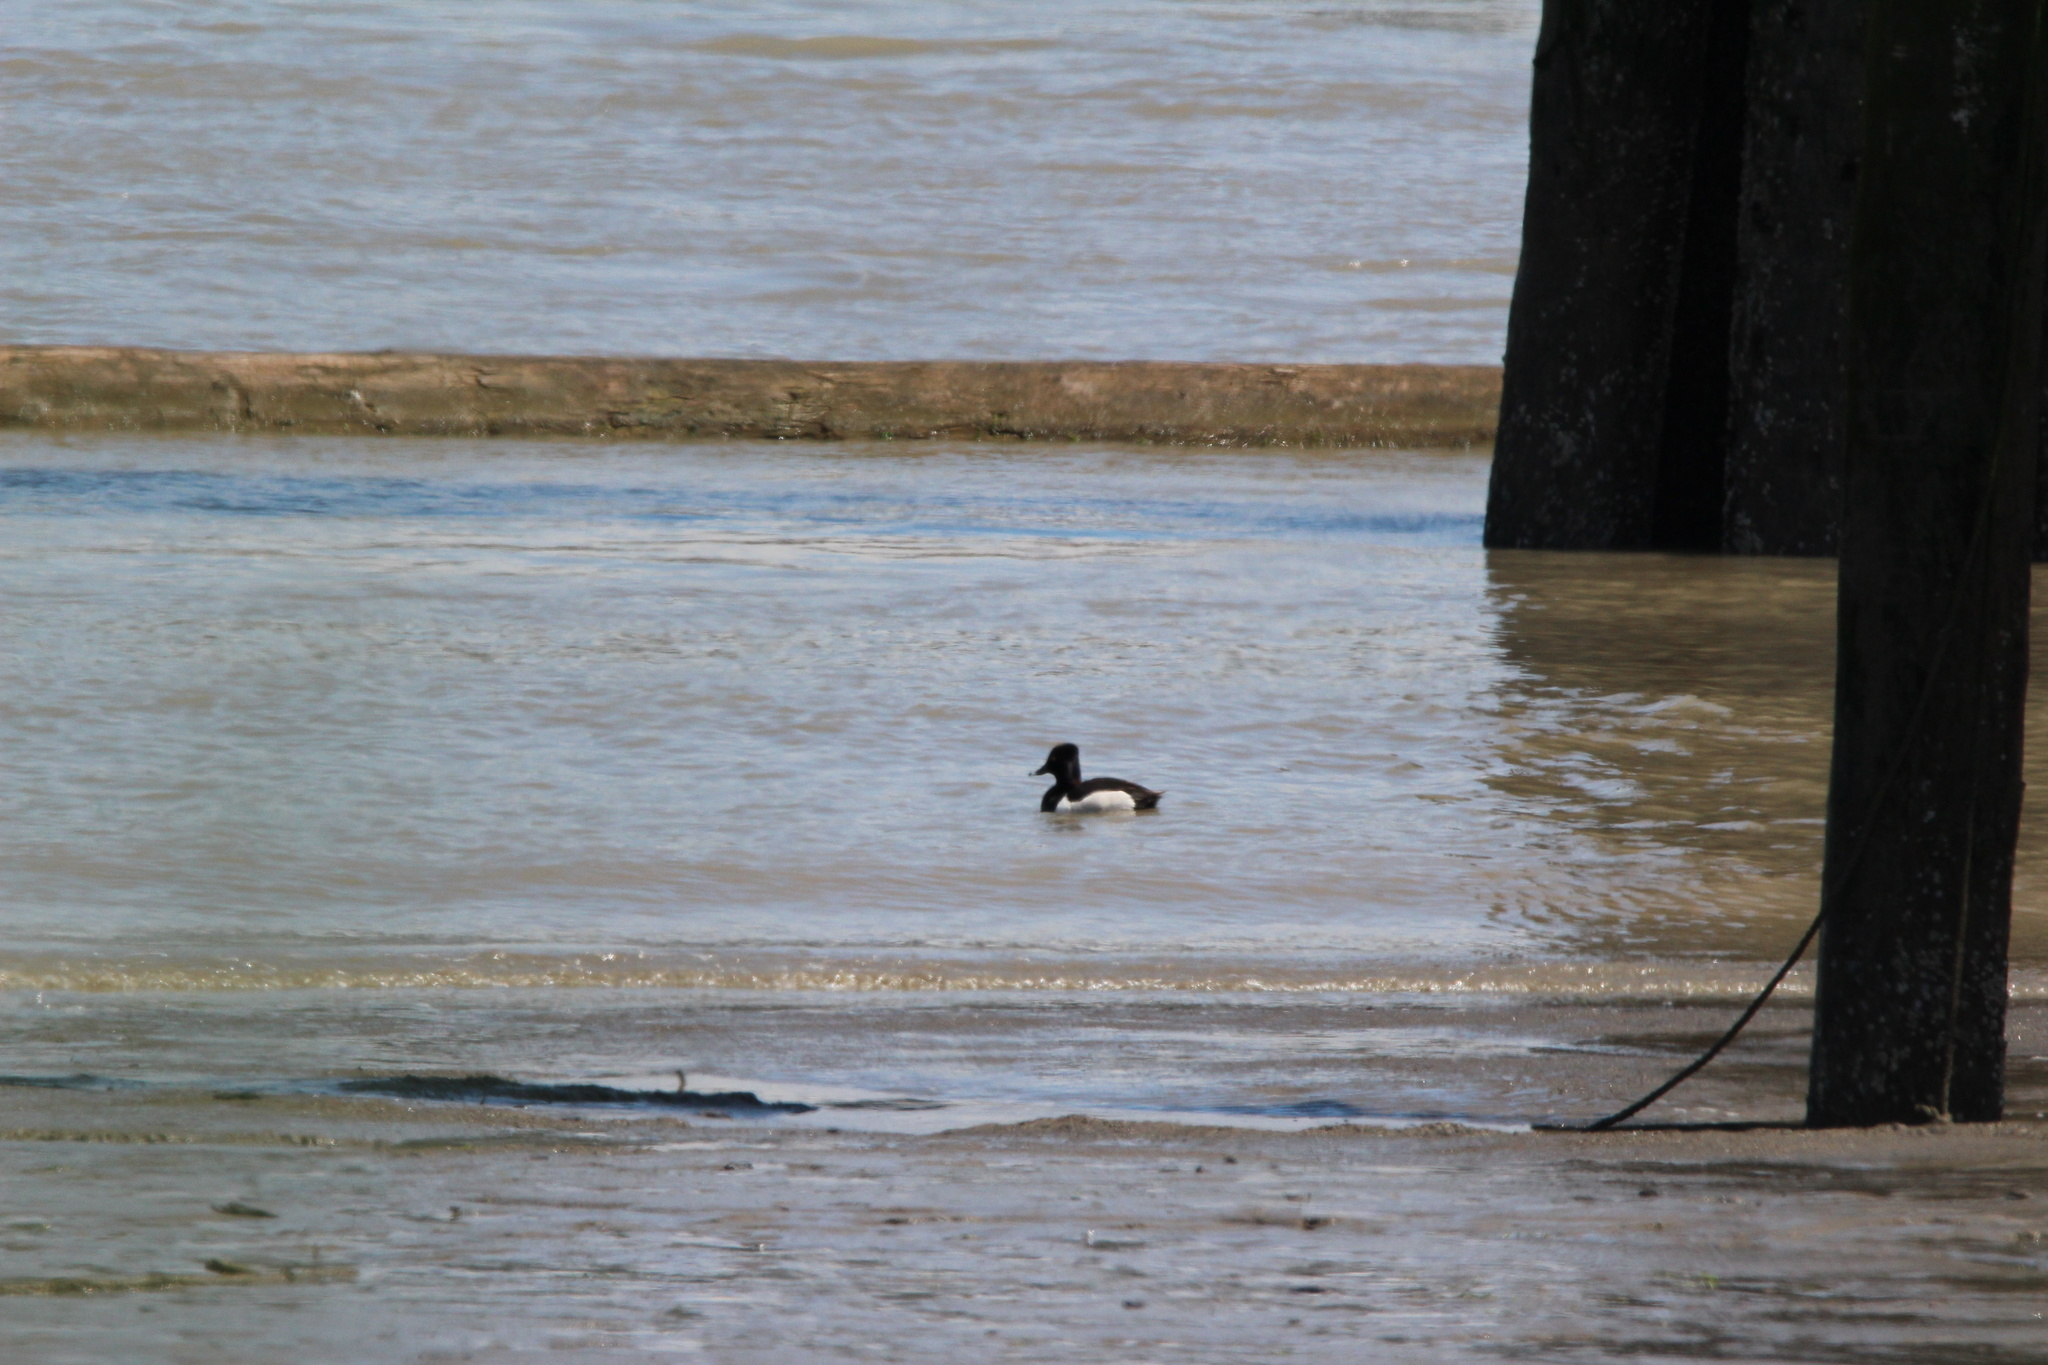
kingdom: Animalia
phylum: Chordata
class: Aves
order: Anseriformes
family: Anatidae
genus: Aythya
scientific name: Aythya collaris
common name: Ring-necked duck
